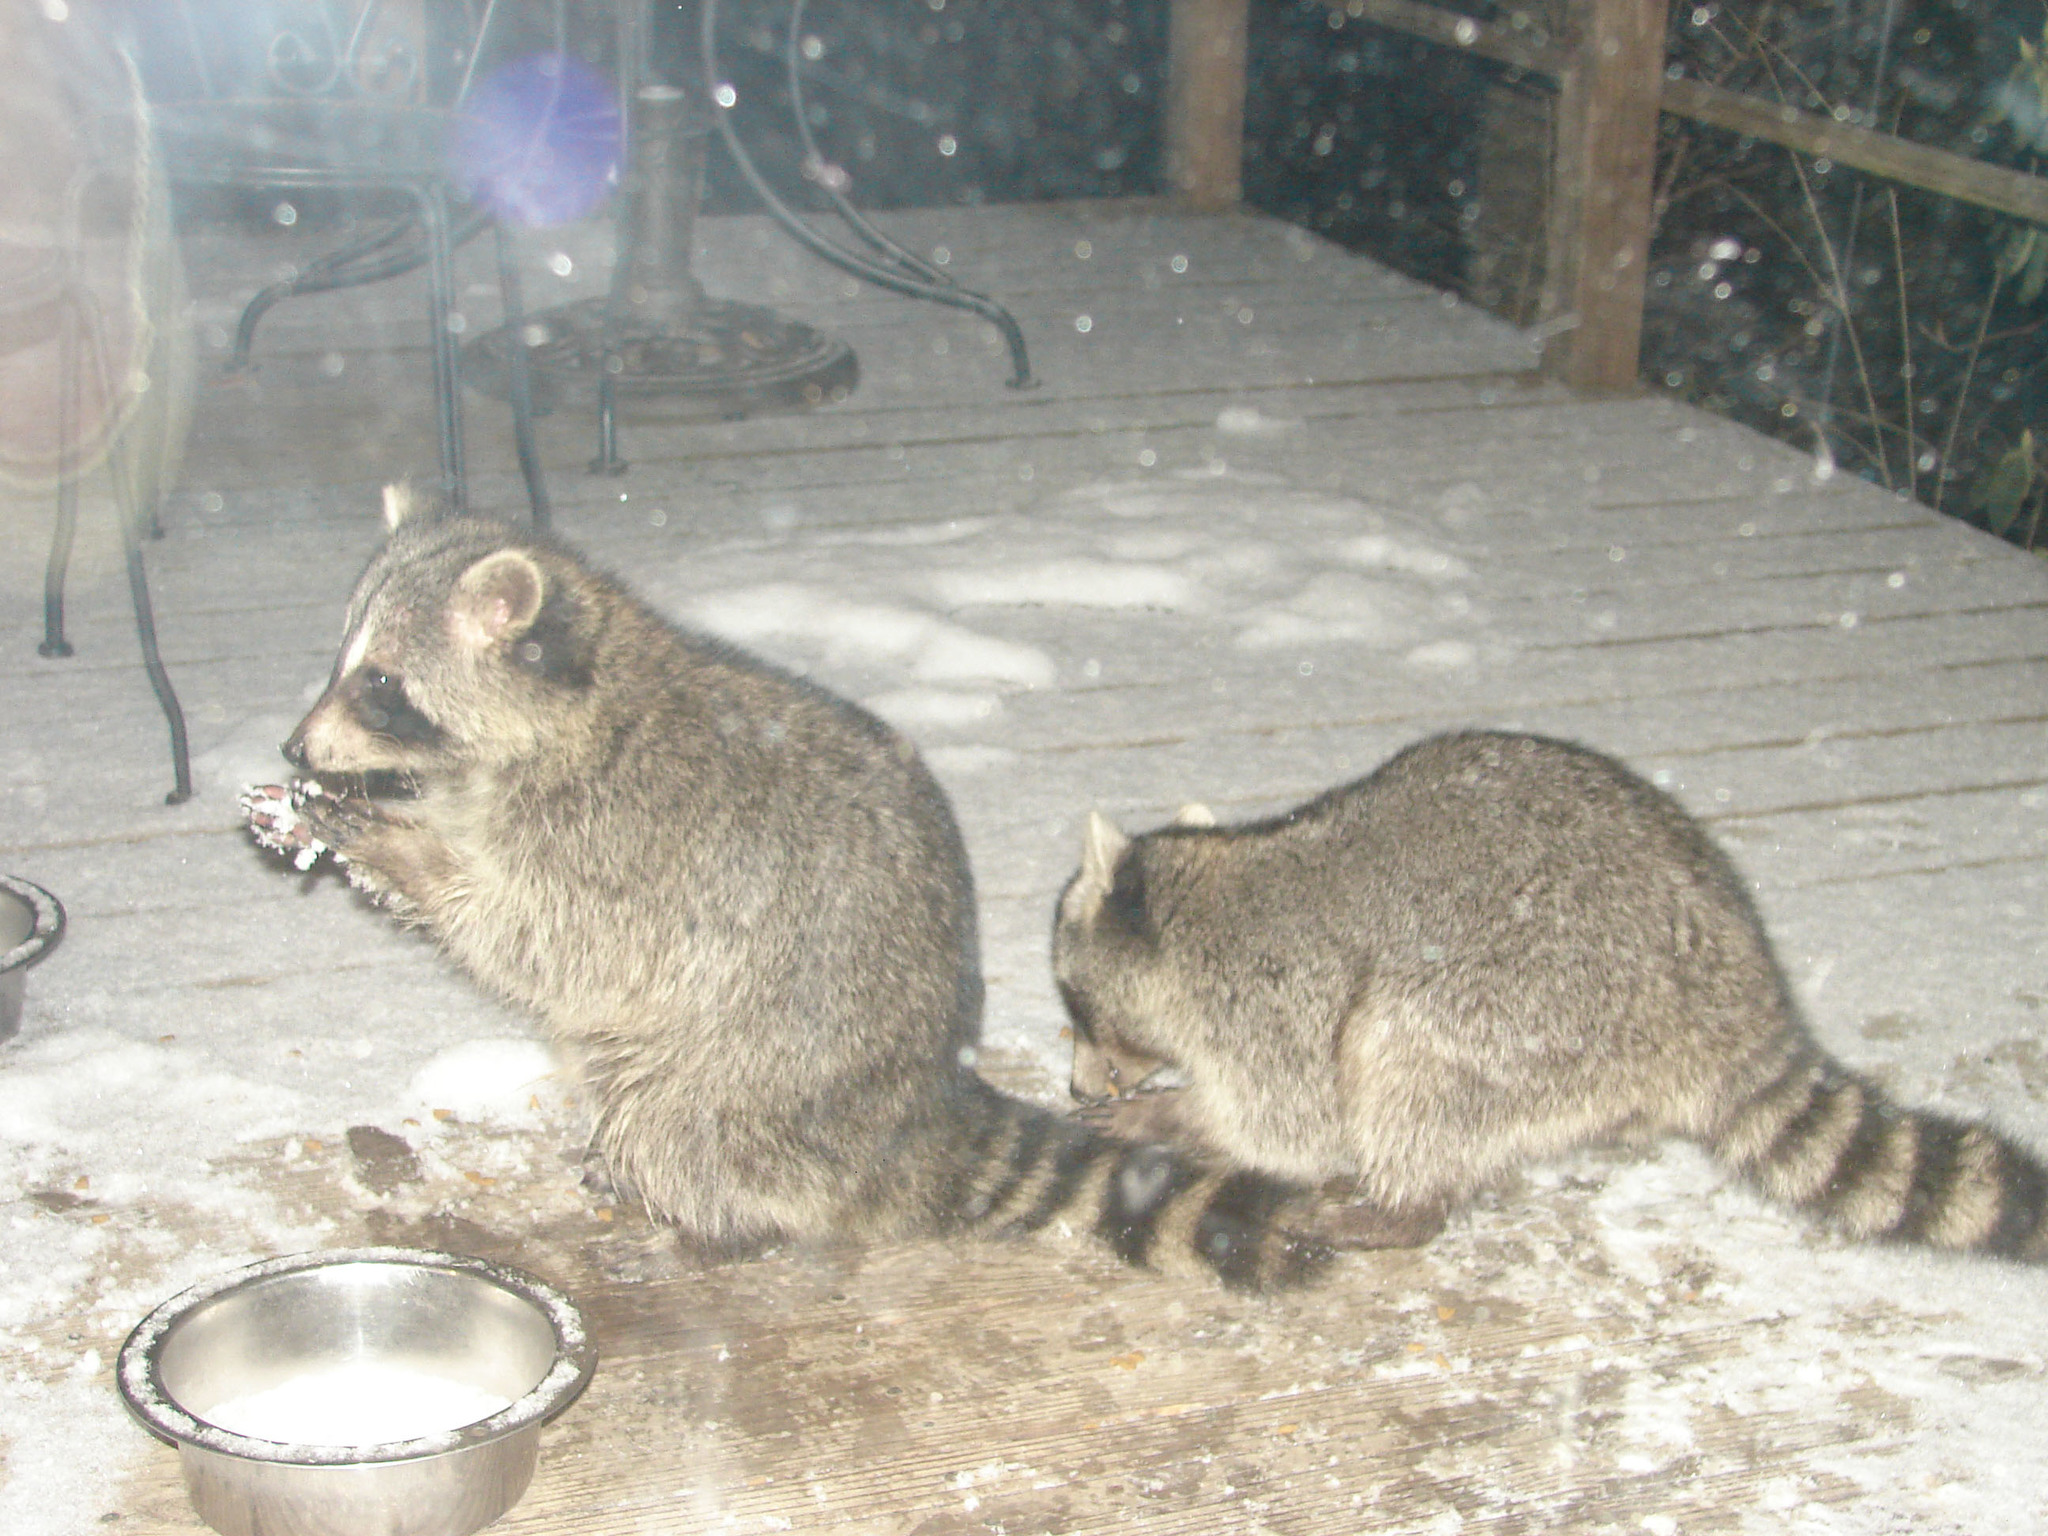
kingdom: Animalia
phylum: Chordata
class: Mammalia
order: Carnivora
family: Procyonidae
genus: Procyon
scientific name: Procyon lotor
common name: Raccoon
